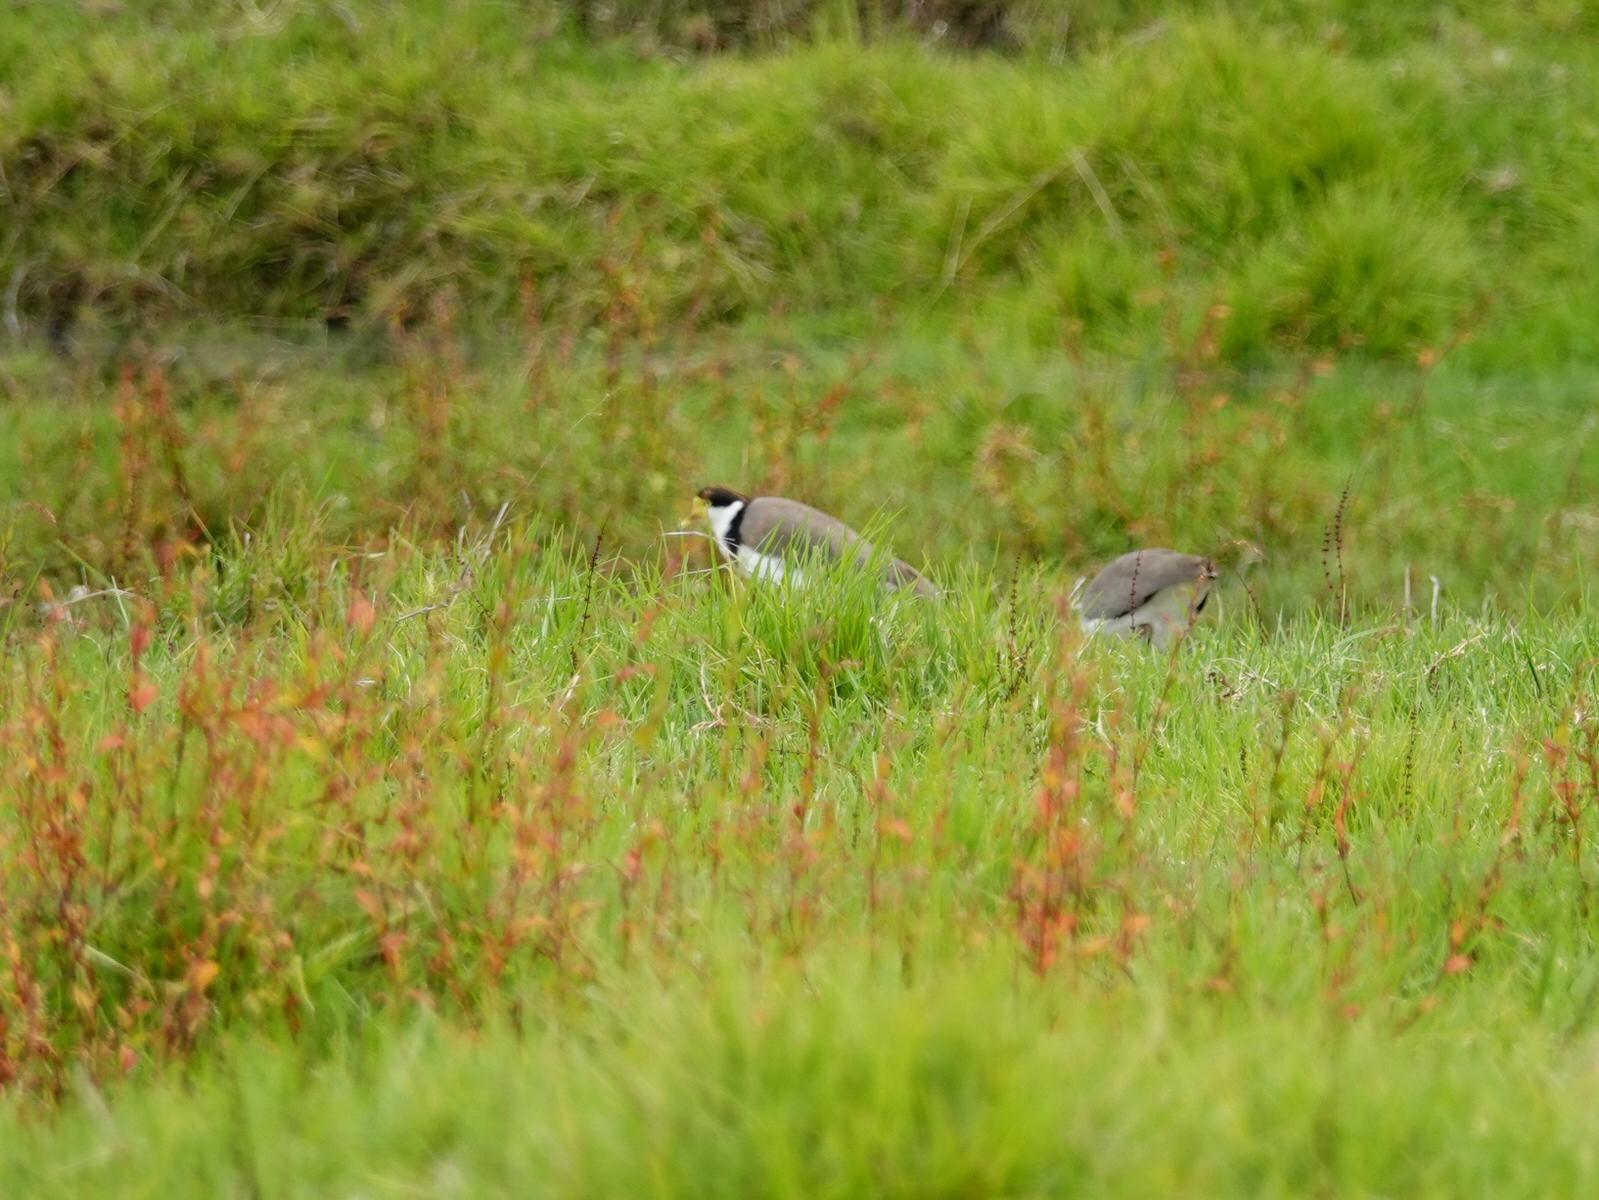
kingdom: Animalia
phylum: Chordata
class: Aves
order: Charadriiformes
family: Charadriidae
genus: Vanellus
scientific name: Vanellus miles
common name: Masked lapwing
